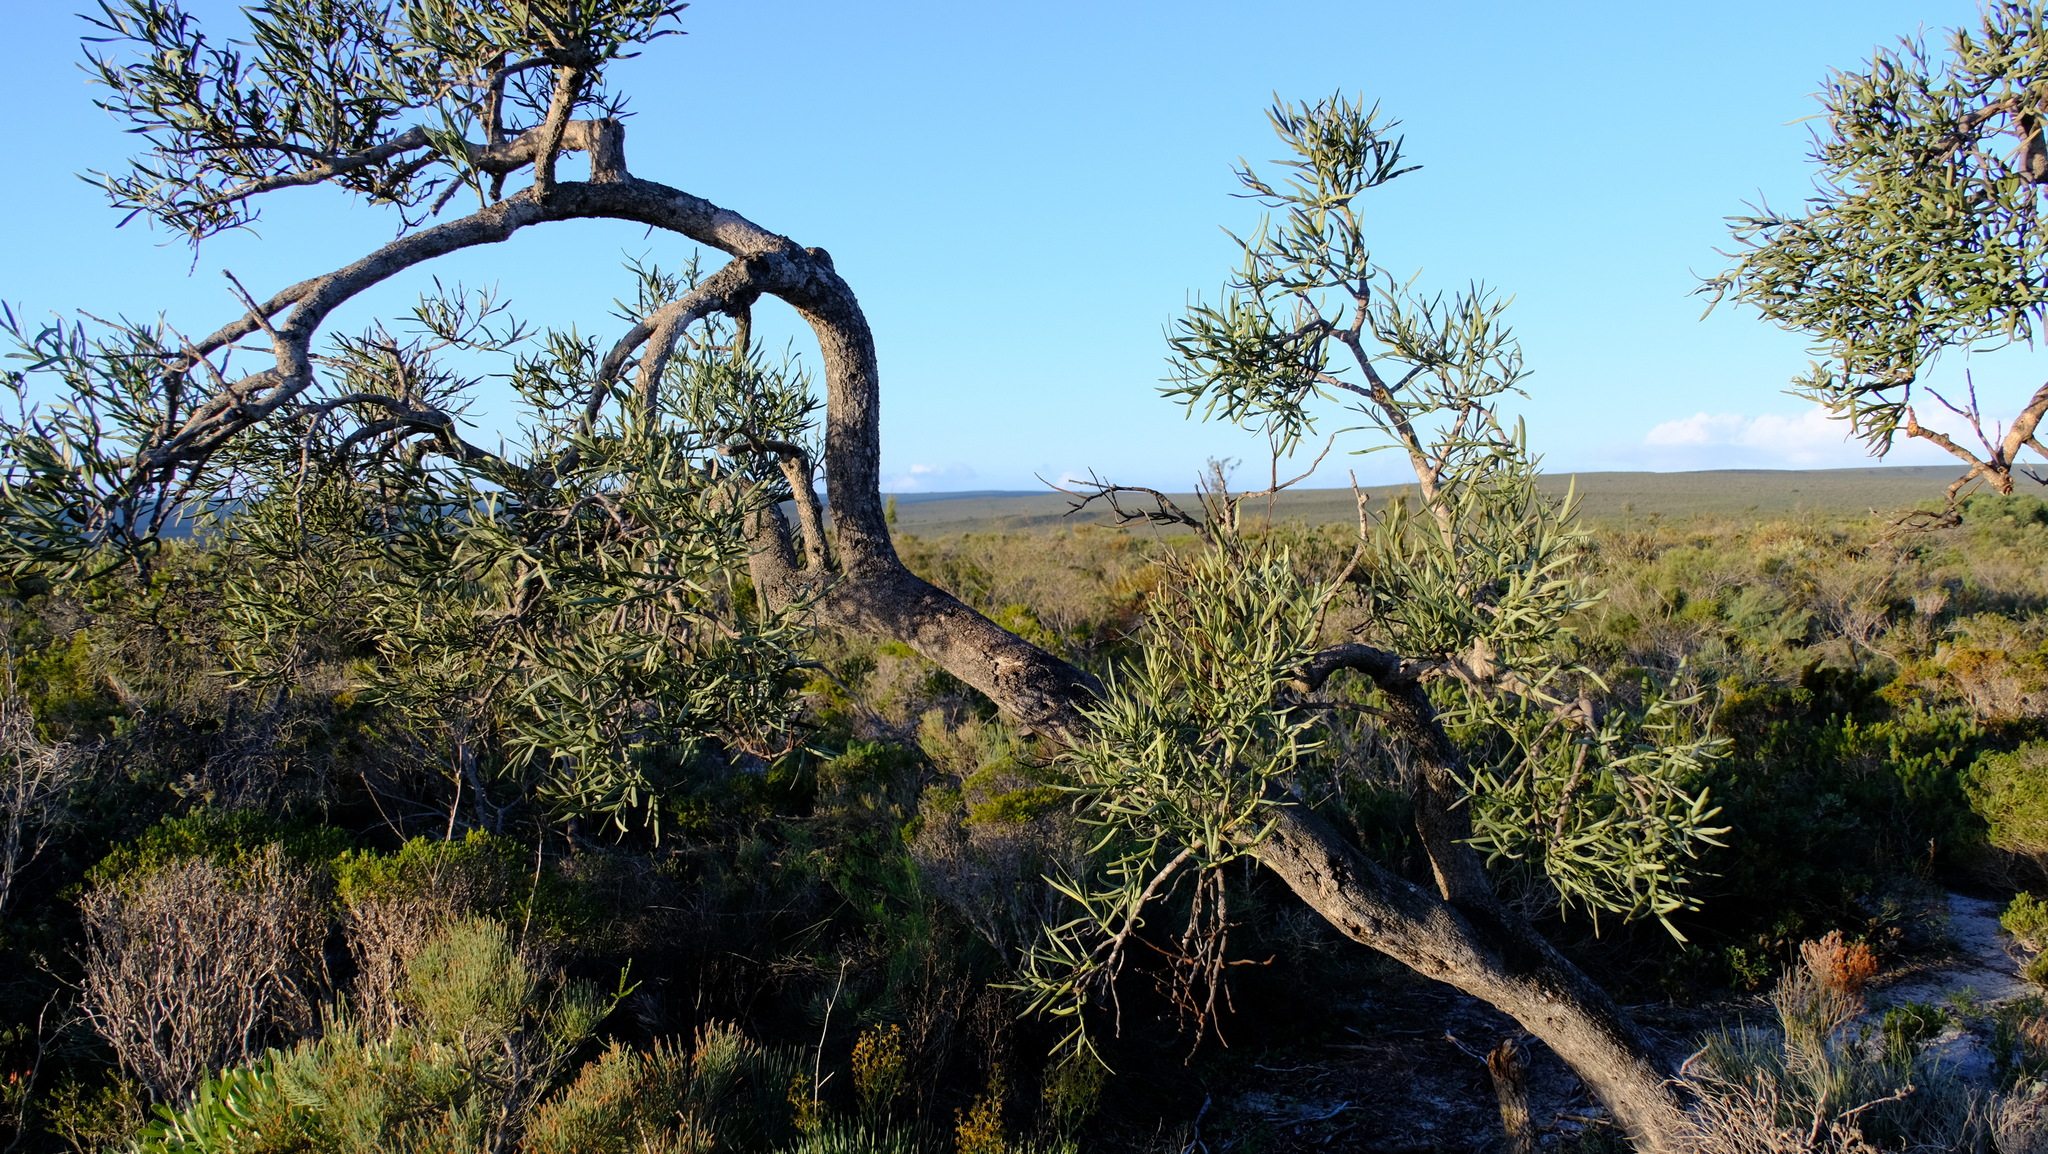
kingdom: Plantae
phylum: Tracheophyta
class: Magnoliopsida
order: Santalales
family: Loranthaceae
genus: Nuytsia
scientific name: Nuytsia floribunda
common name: Western australian christmastree
